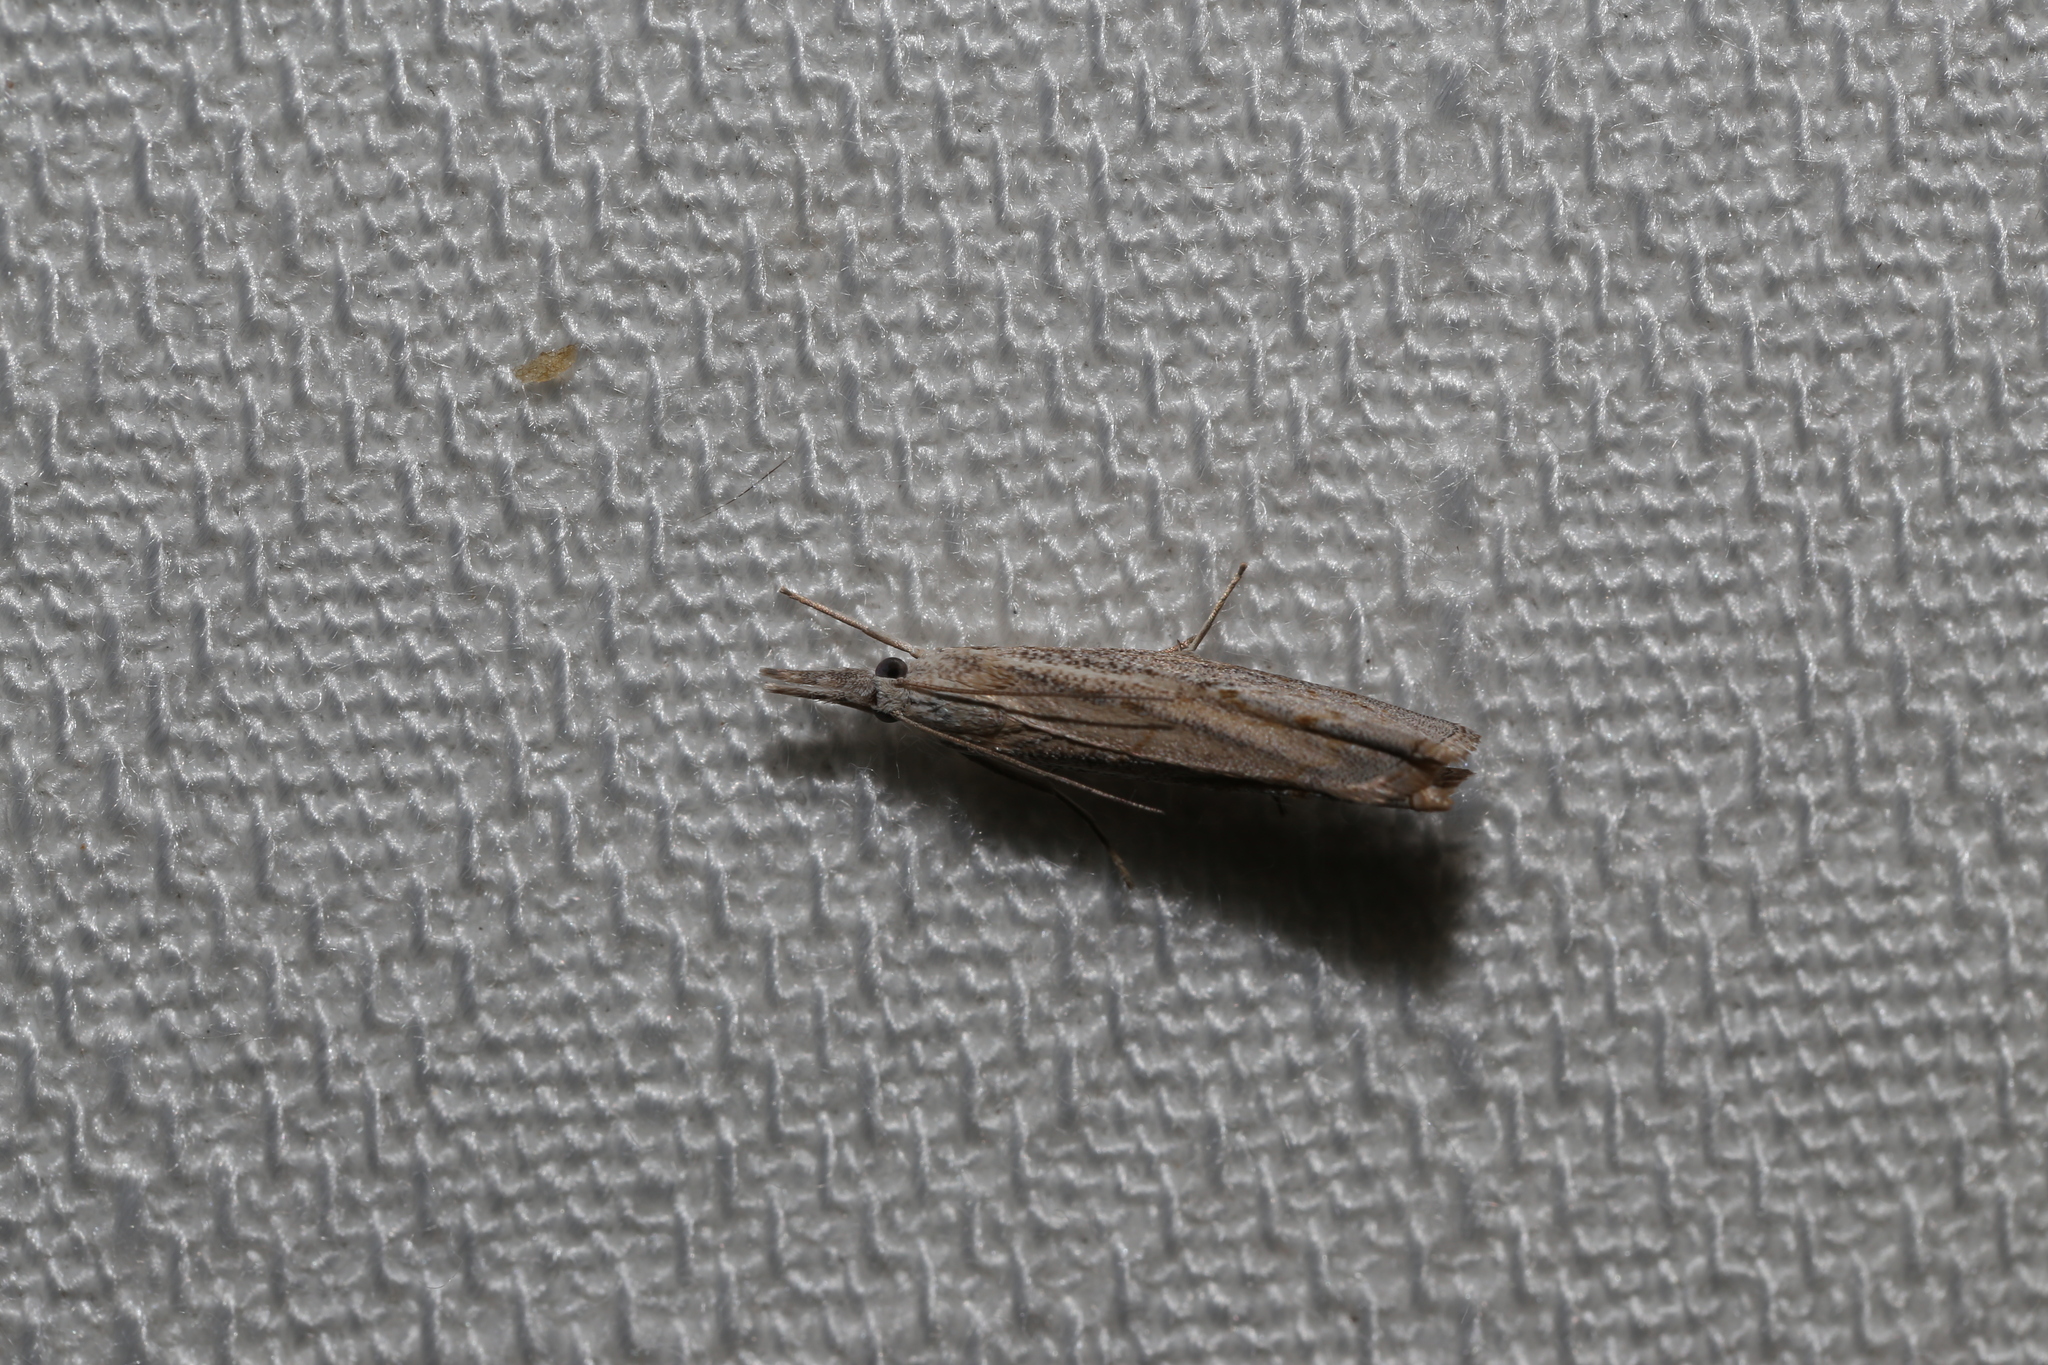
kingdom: Animalia
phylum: Arthropoda
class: Insecta
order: Lepidoptera
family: Crambidae
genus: Culladia
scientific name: Culladia cuneiferellus
